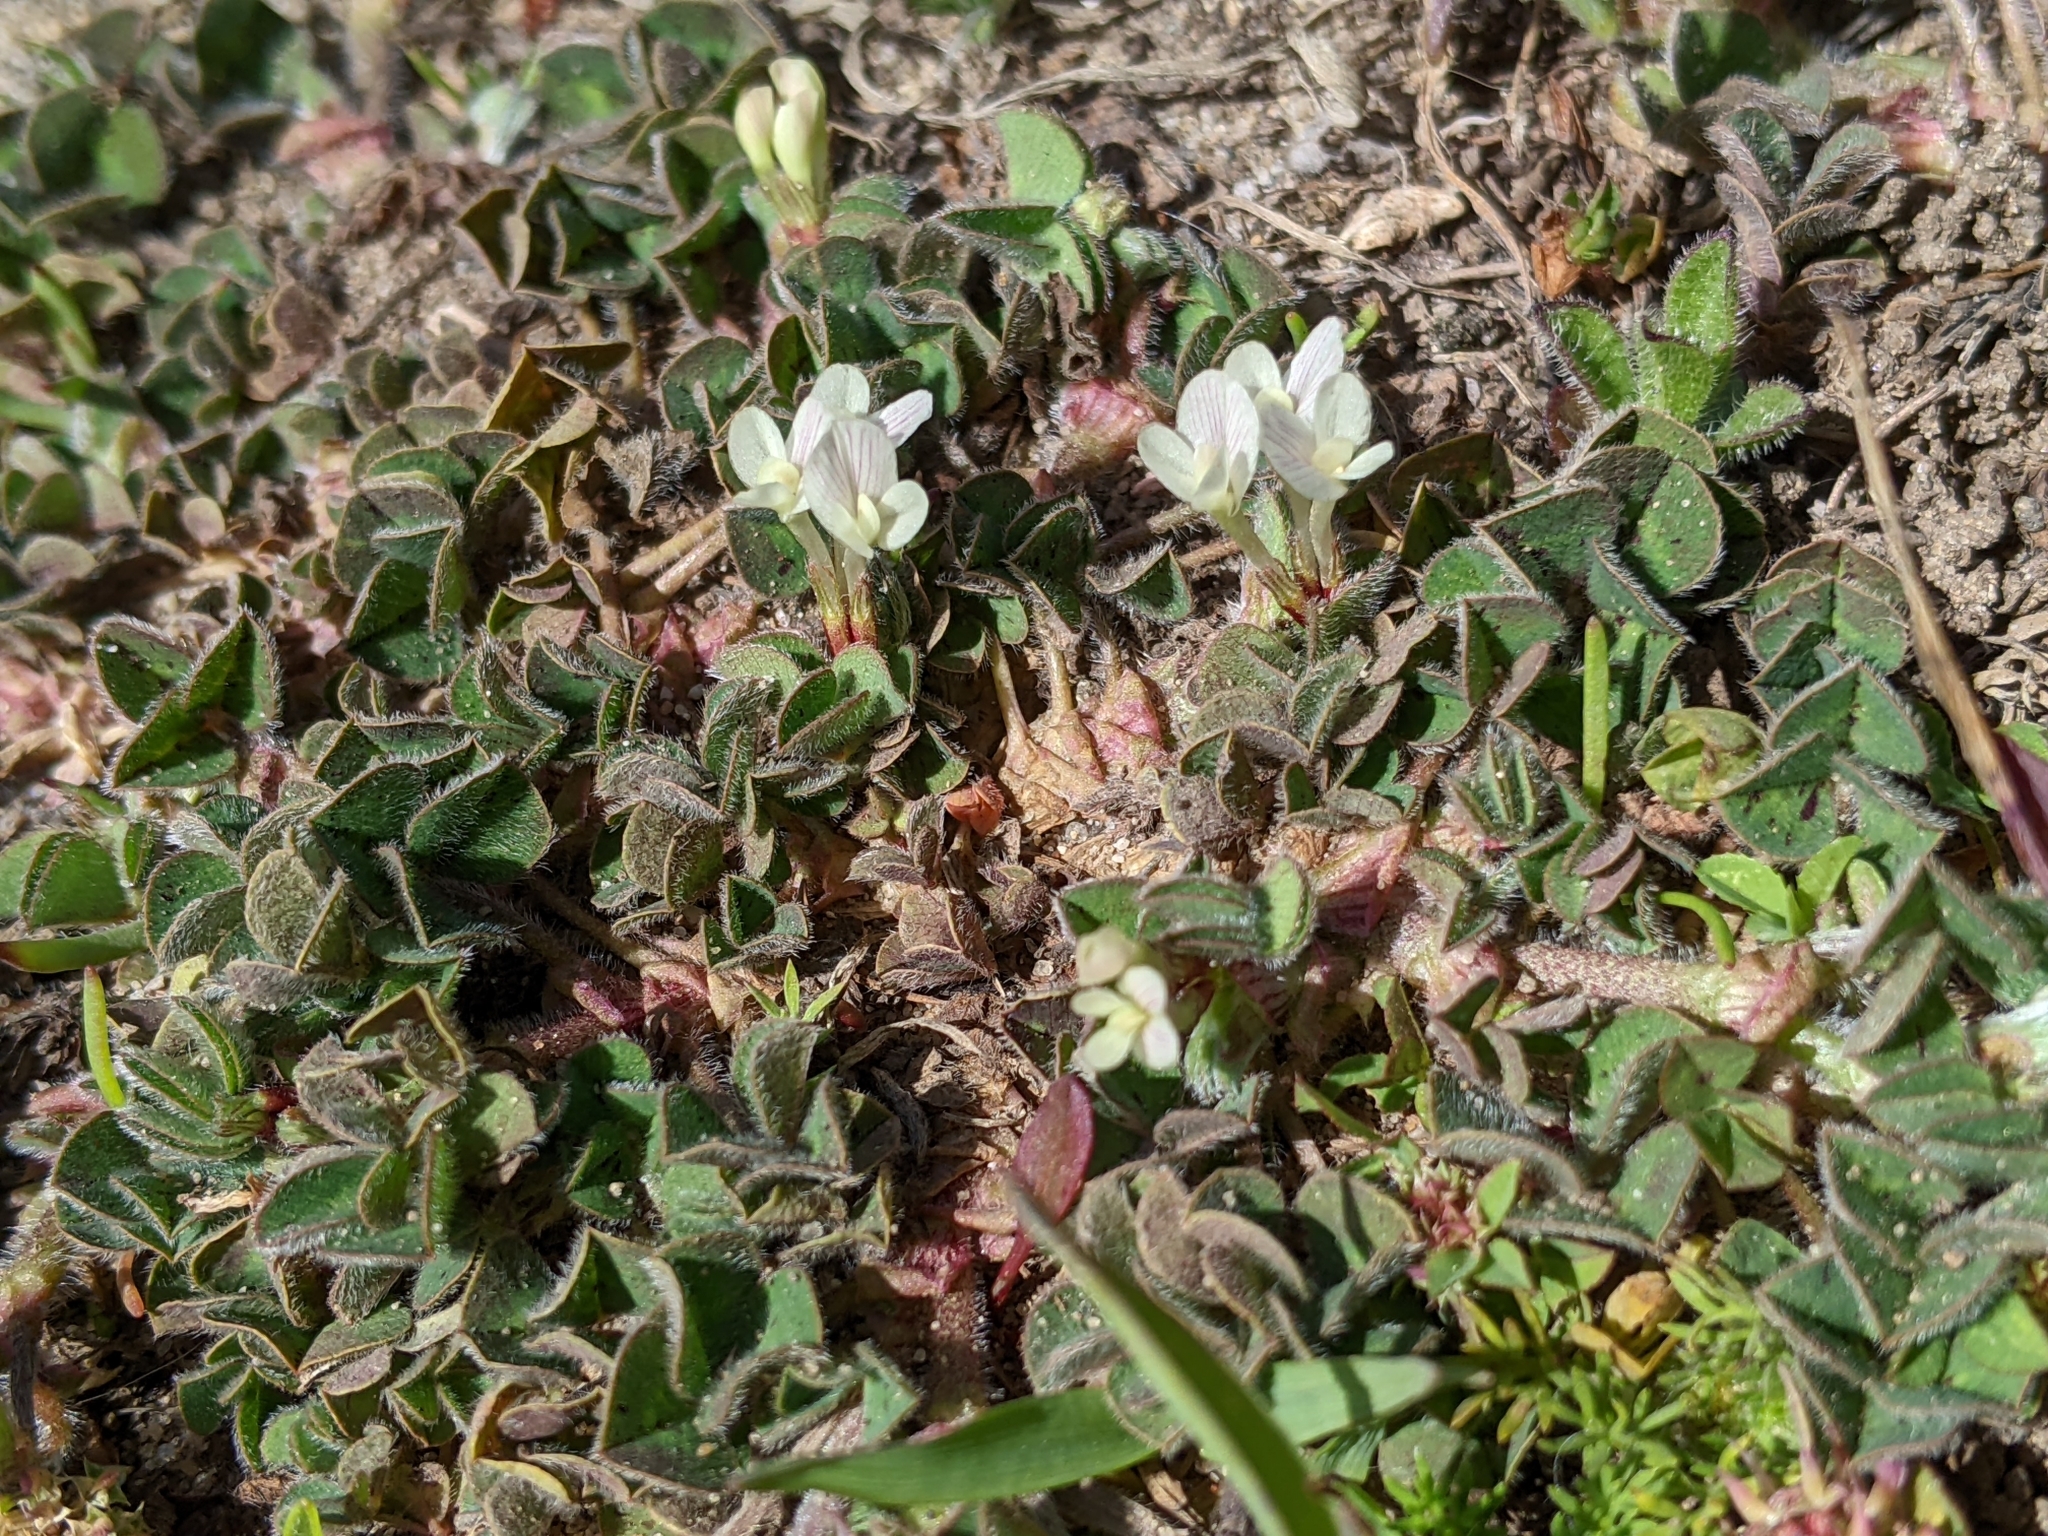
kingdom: Plantae
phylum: Tracheophyta
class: Magnoliopsida
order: Fabales
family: Fabaceae
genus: Trifolium
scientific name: Trifolium subterraneum
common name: Subterranean clover
